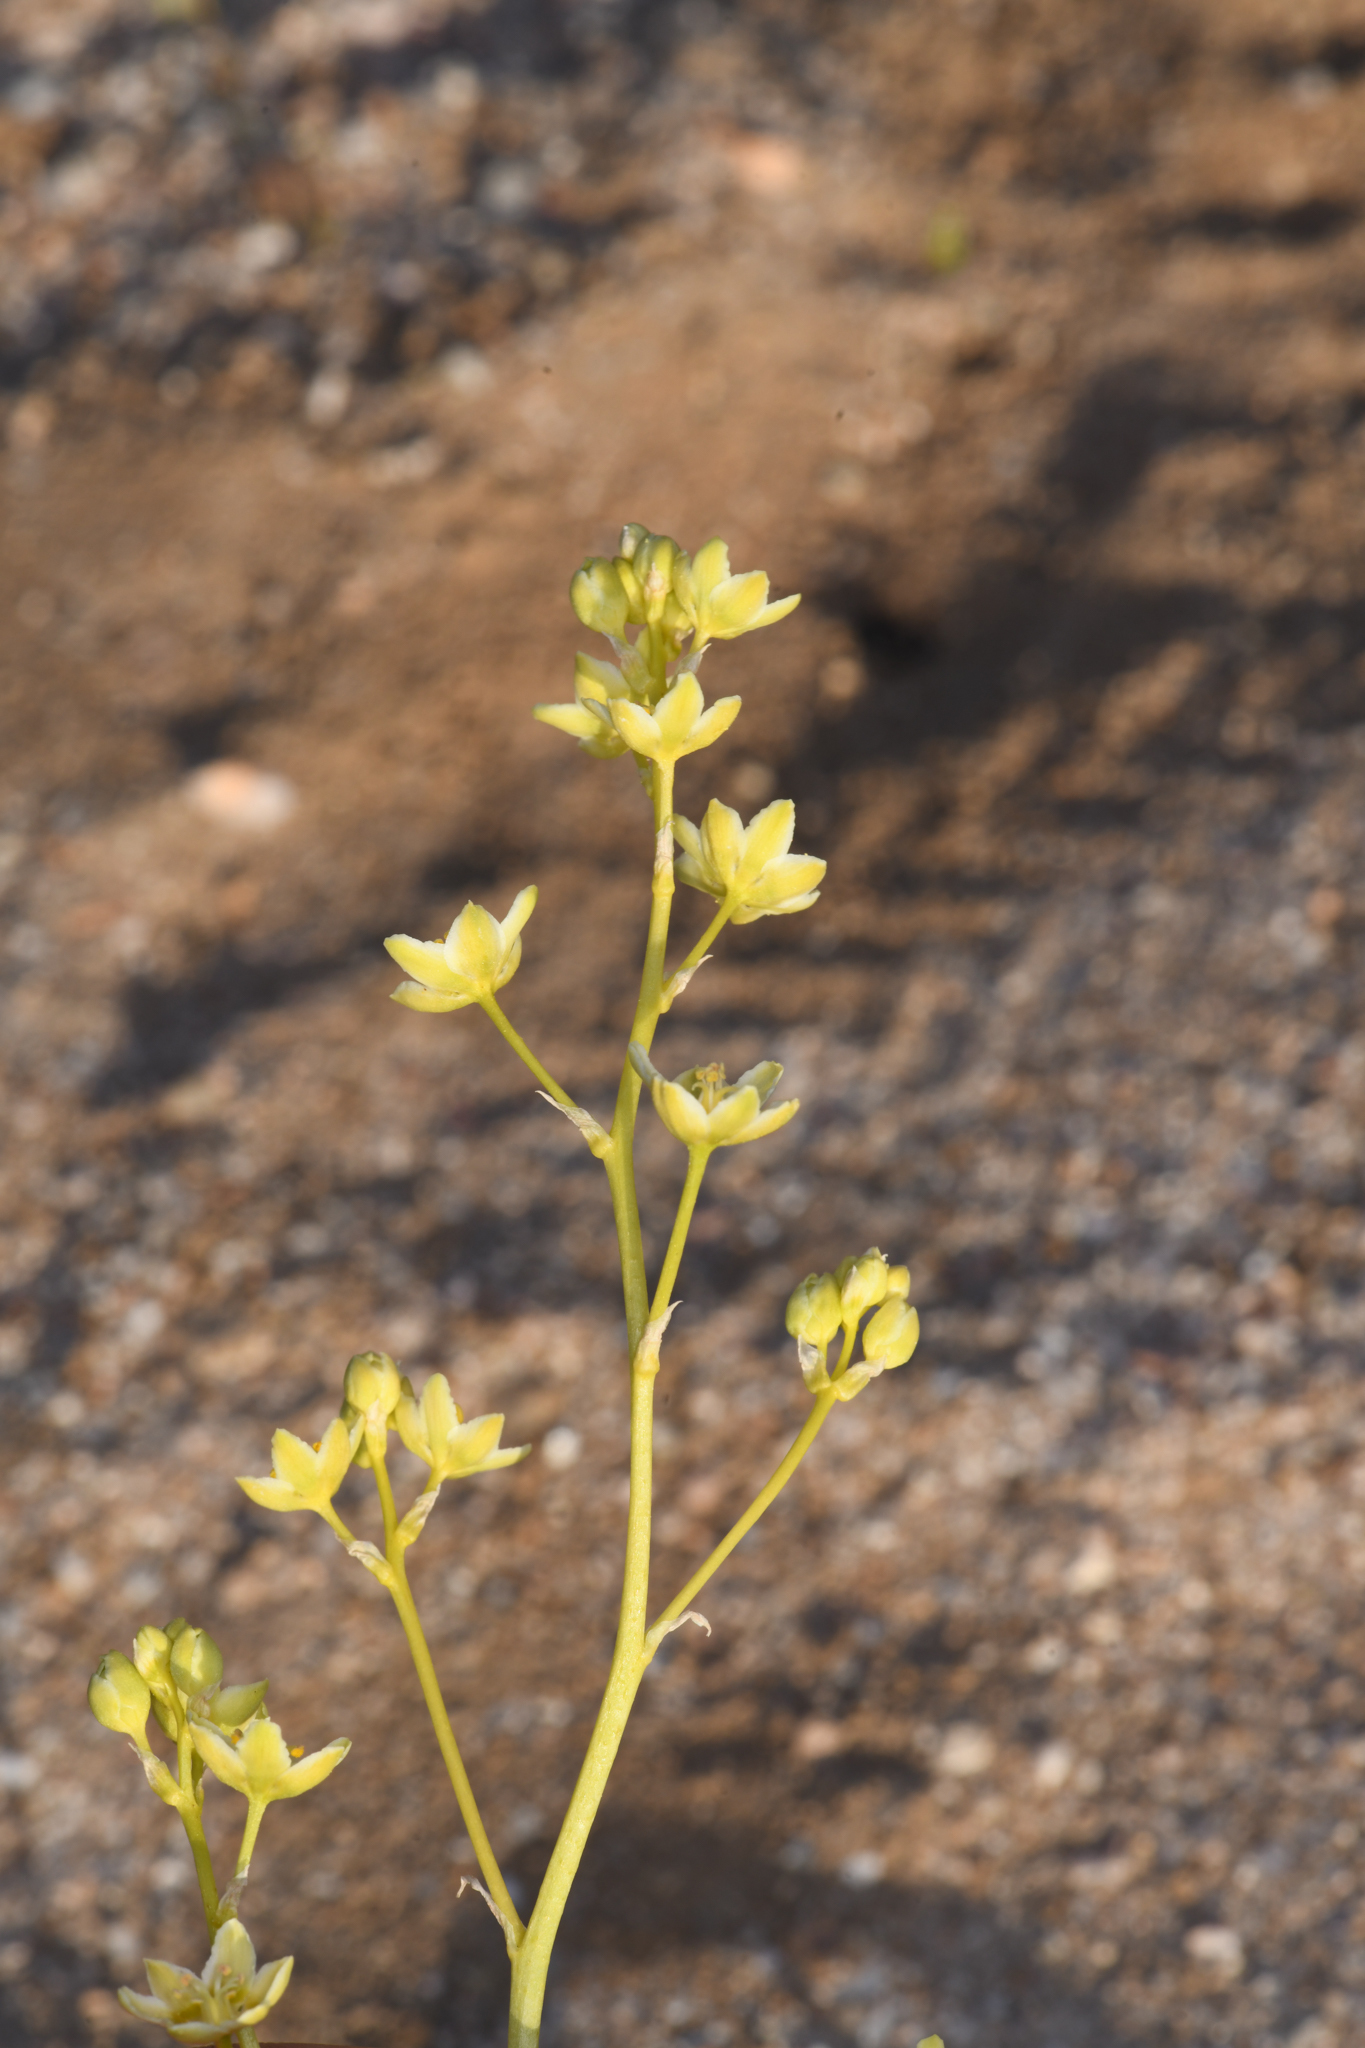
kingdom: Plantae
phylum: Tracheophyta
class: Liliopsida
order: Liliales
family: Melanthiaceae
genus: Toxicoscordion
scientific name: Toxicoscordion brevibracteatum
